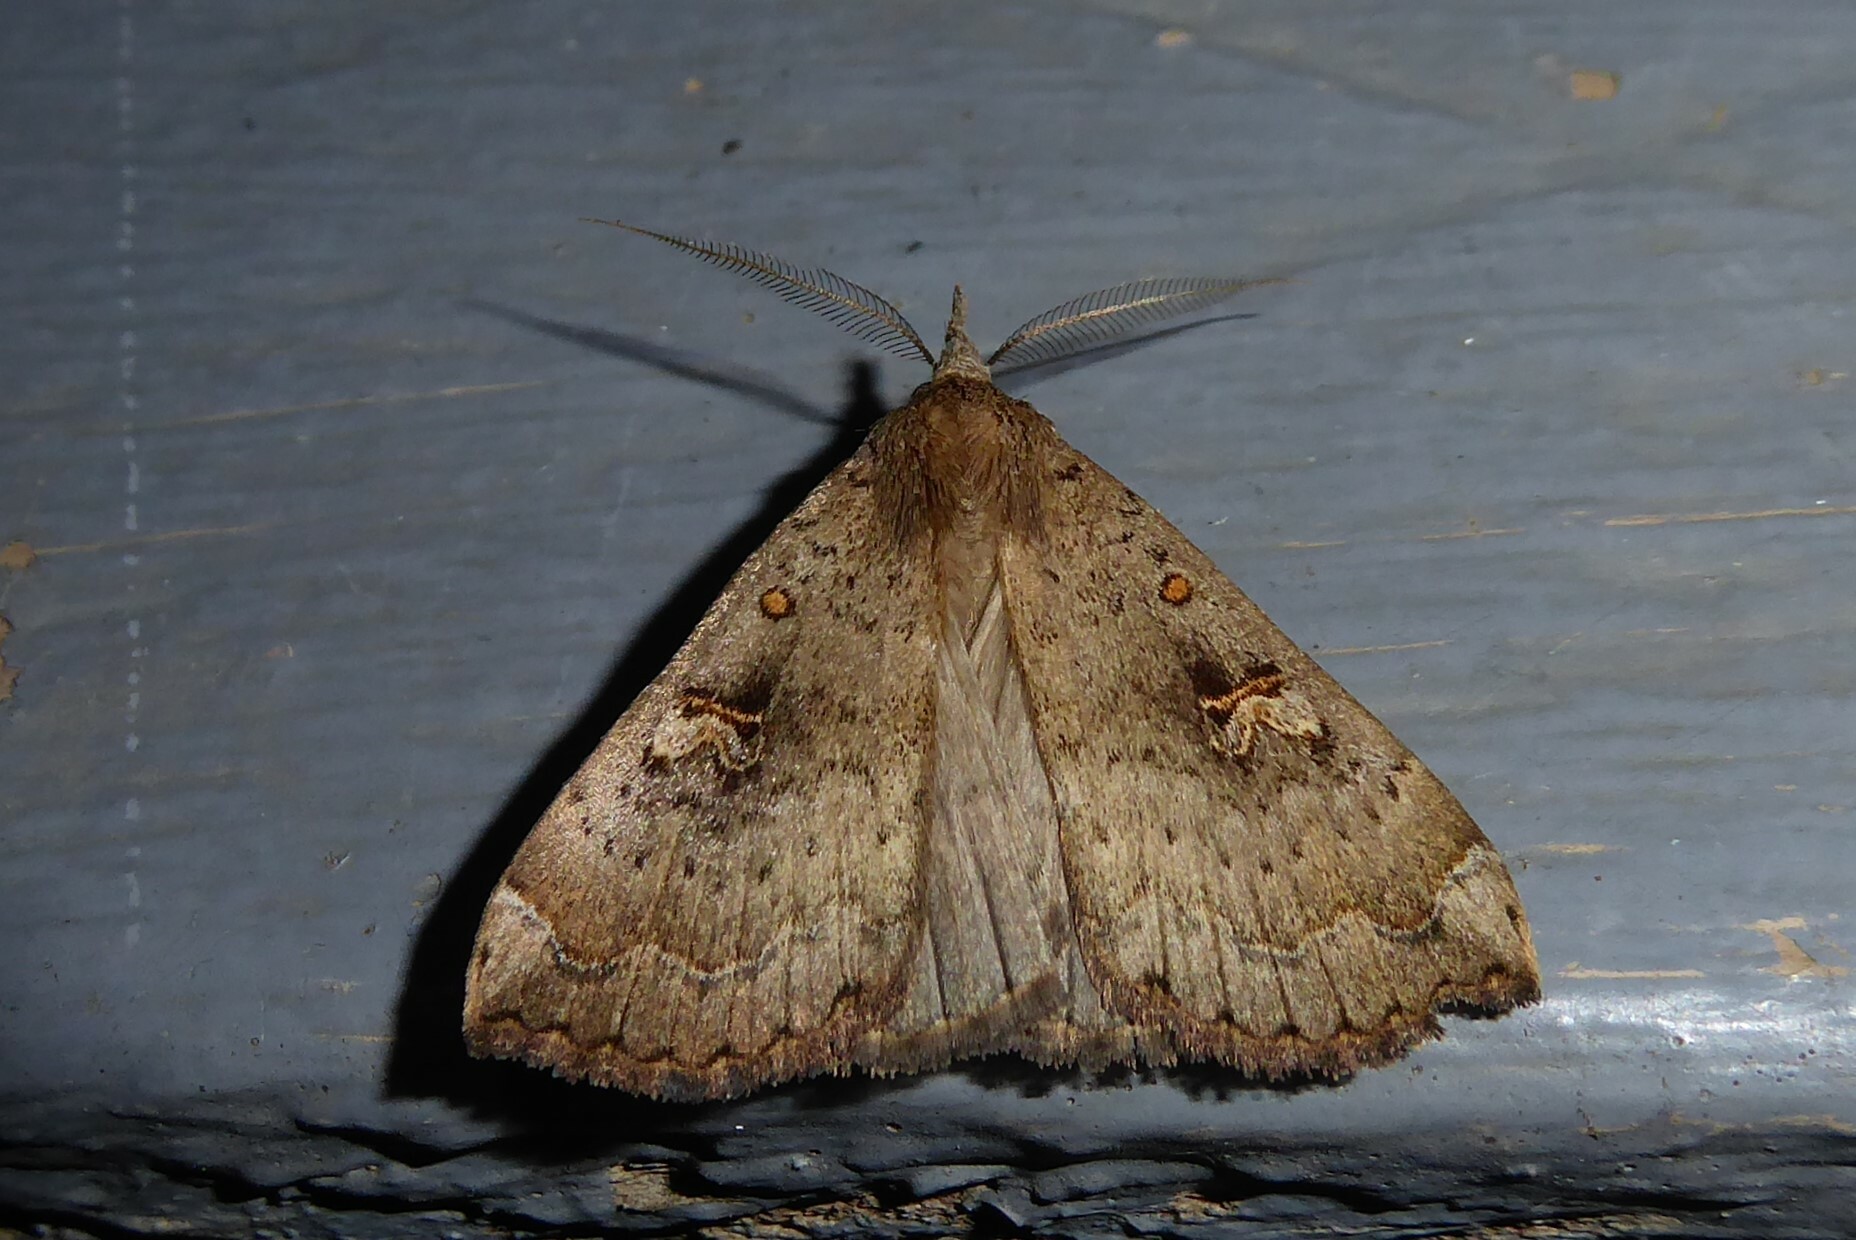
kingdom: Animalia
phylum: Arthropoda
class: Insecta
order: Lepidoptera
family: Erebidae
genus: Rhapsa
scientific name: Rhapsa scotosialis
